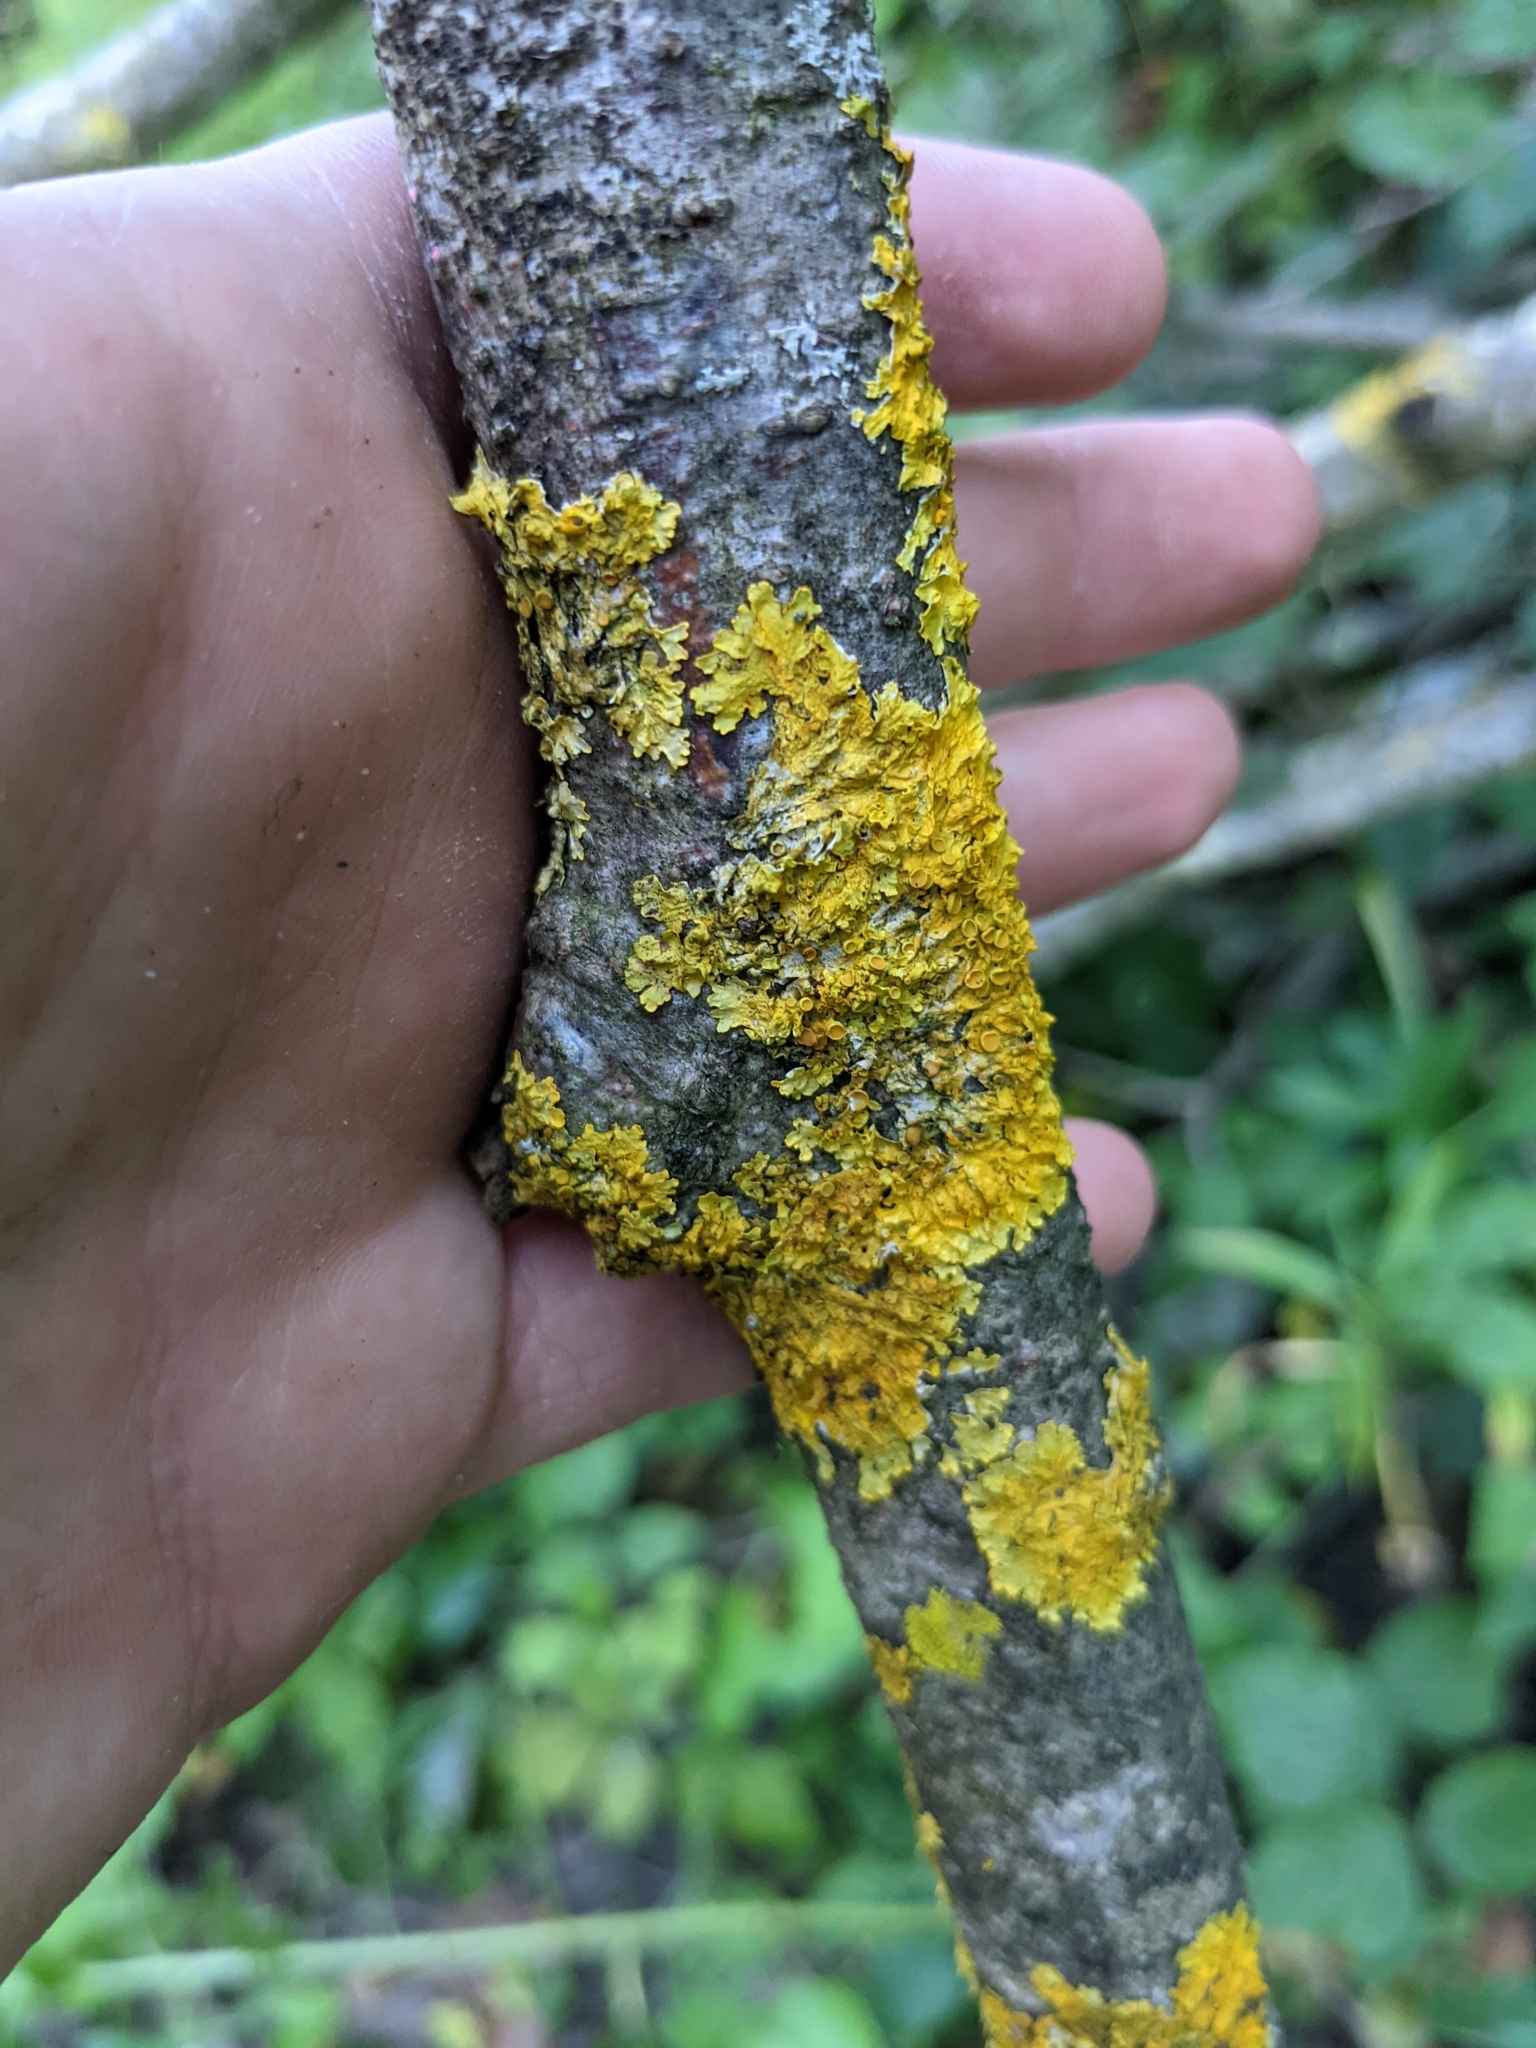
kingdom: Fungi
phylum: Ascomycota
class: Lecanoromycetes
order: Teloschistales
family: Teloschistaceae
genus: Xanthoria
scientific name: Xanthoria parietina
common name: Common orange lichen
